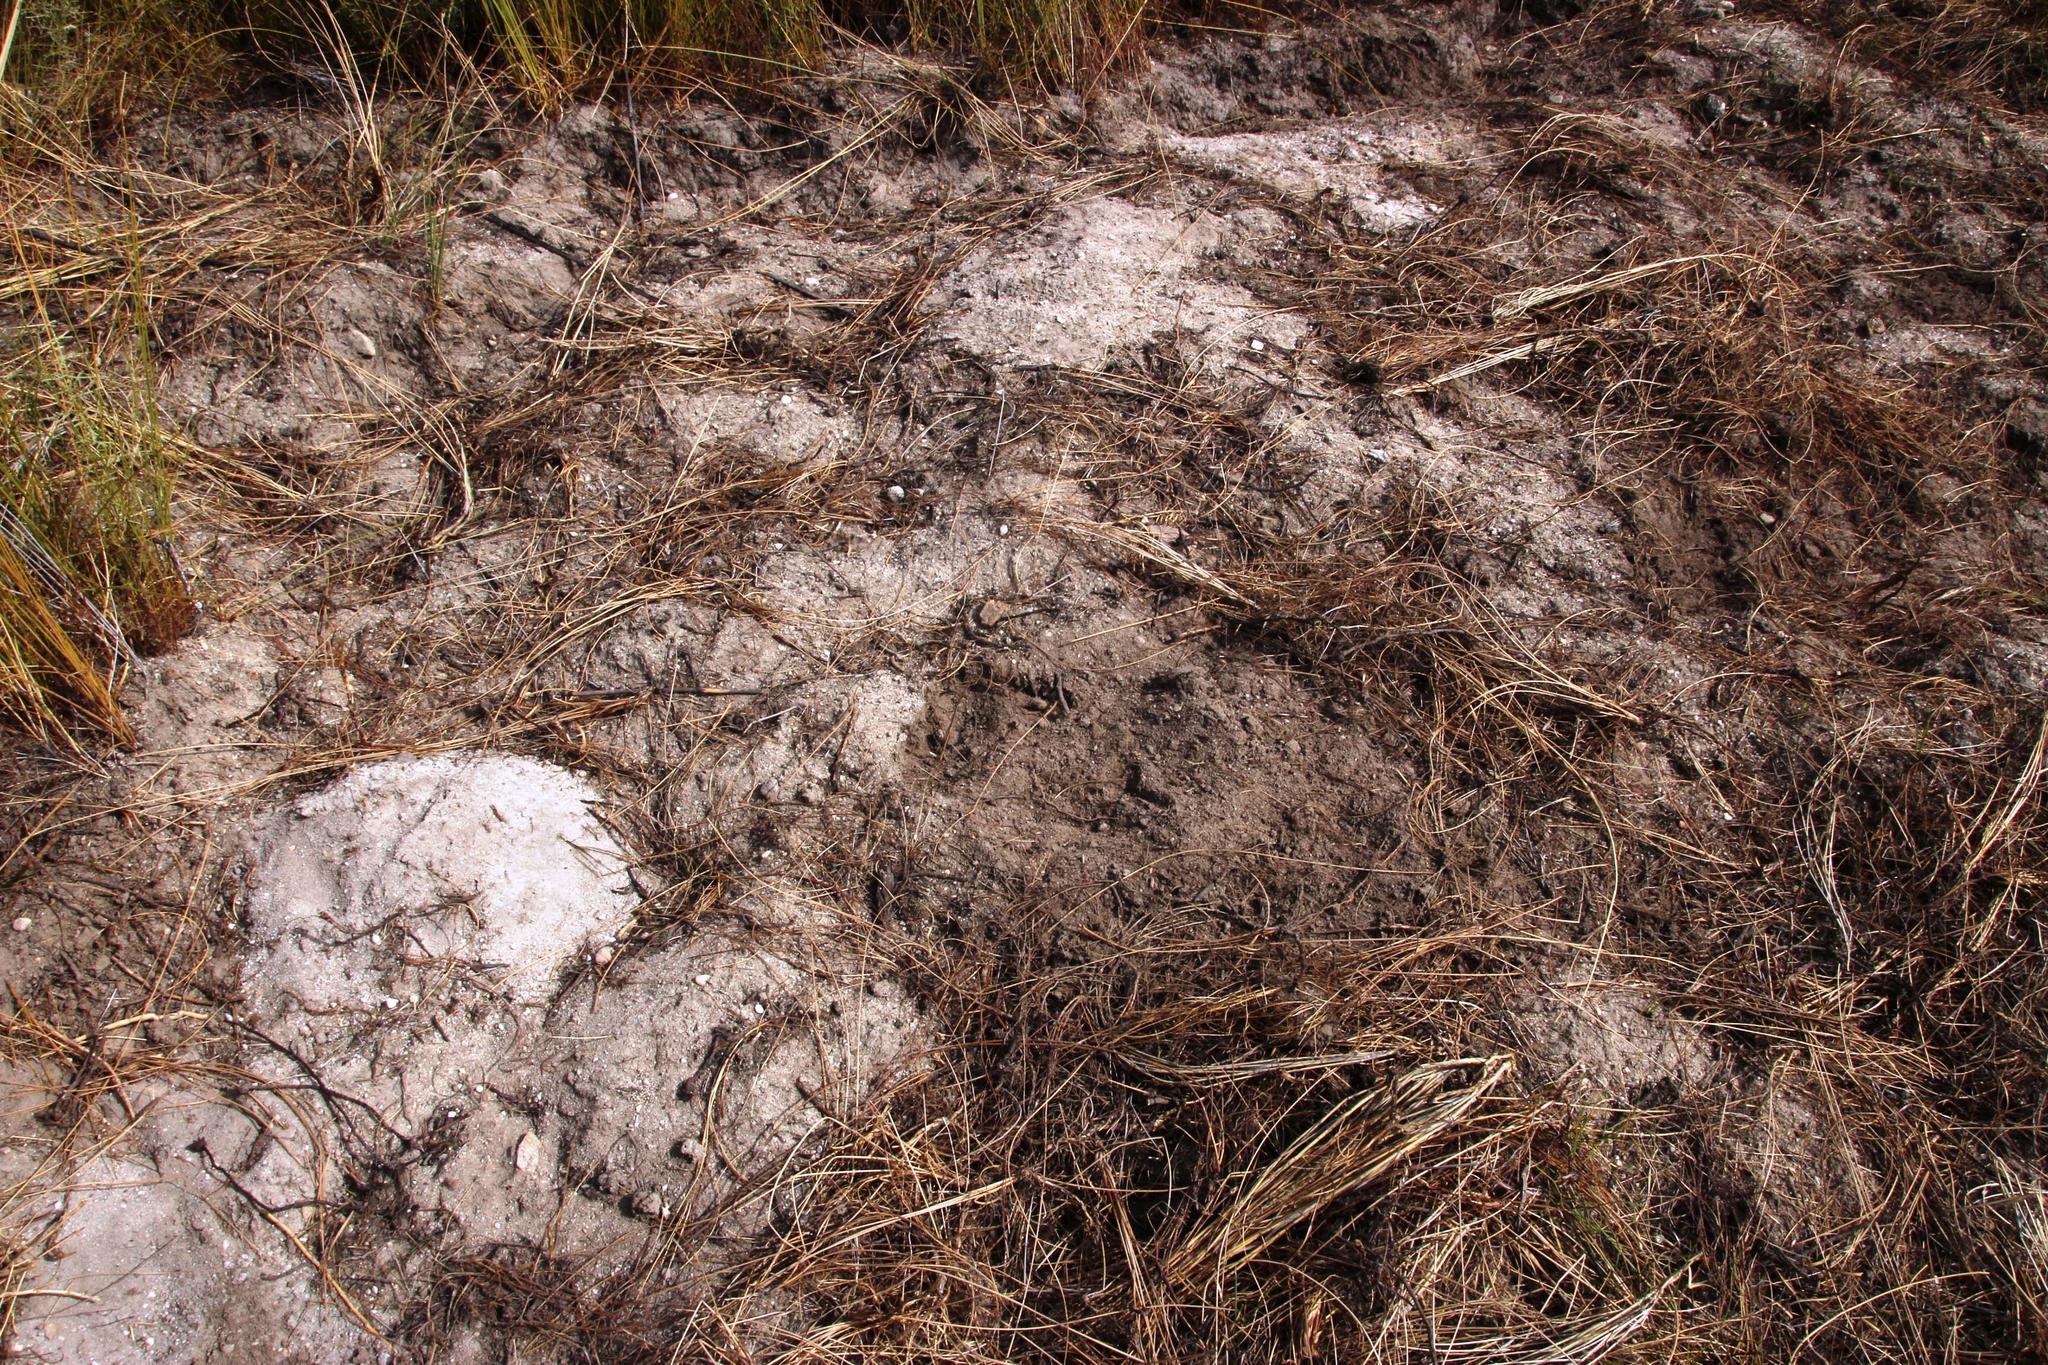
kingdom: Animalia
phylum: Chordata
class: Mammalia
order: Primates
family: Cercopithecidae
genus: Papio
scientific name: Papio ursinus
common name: Chacma baboon
